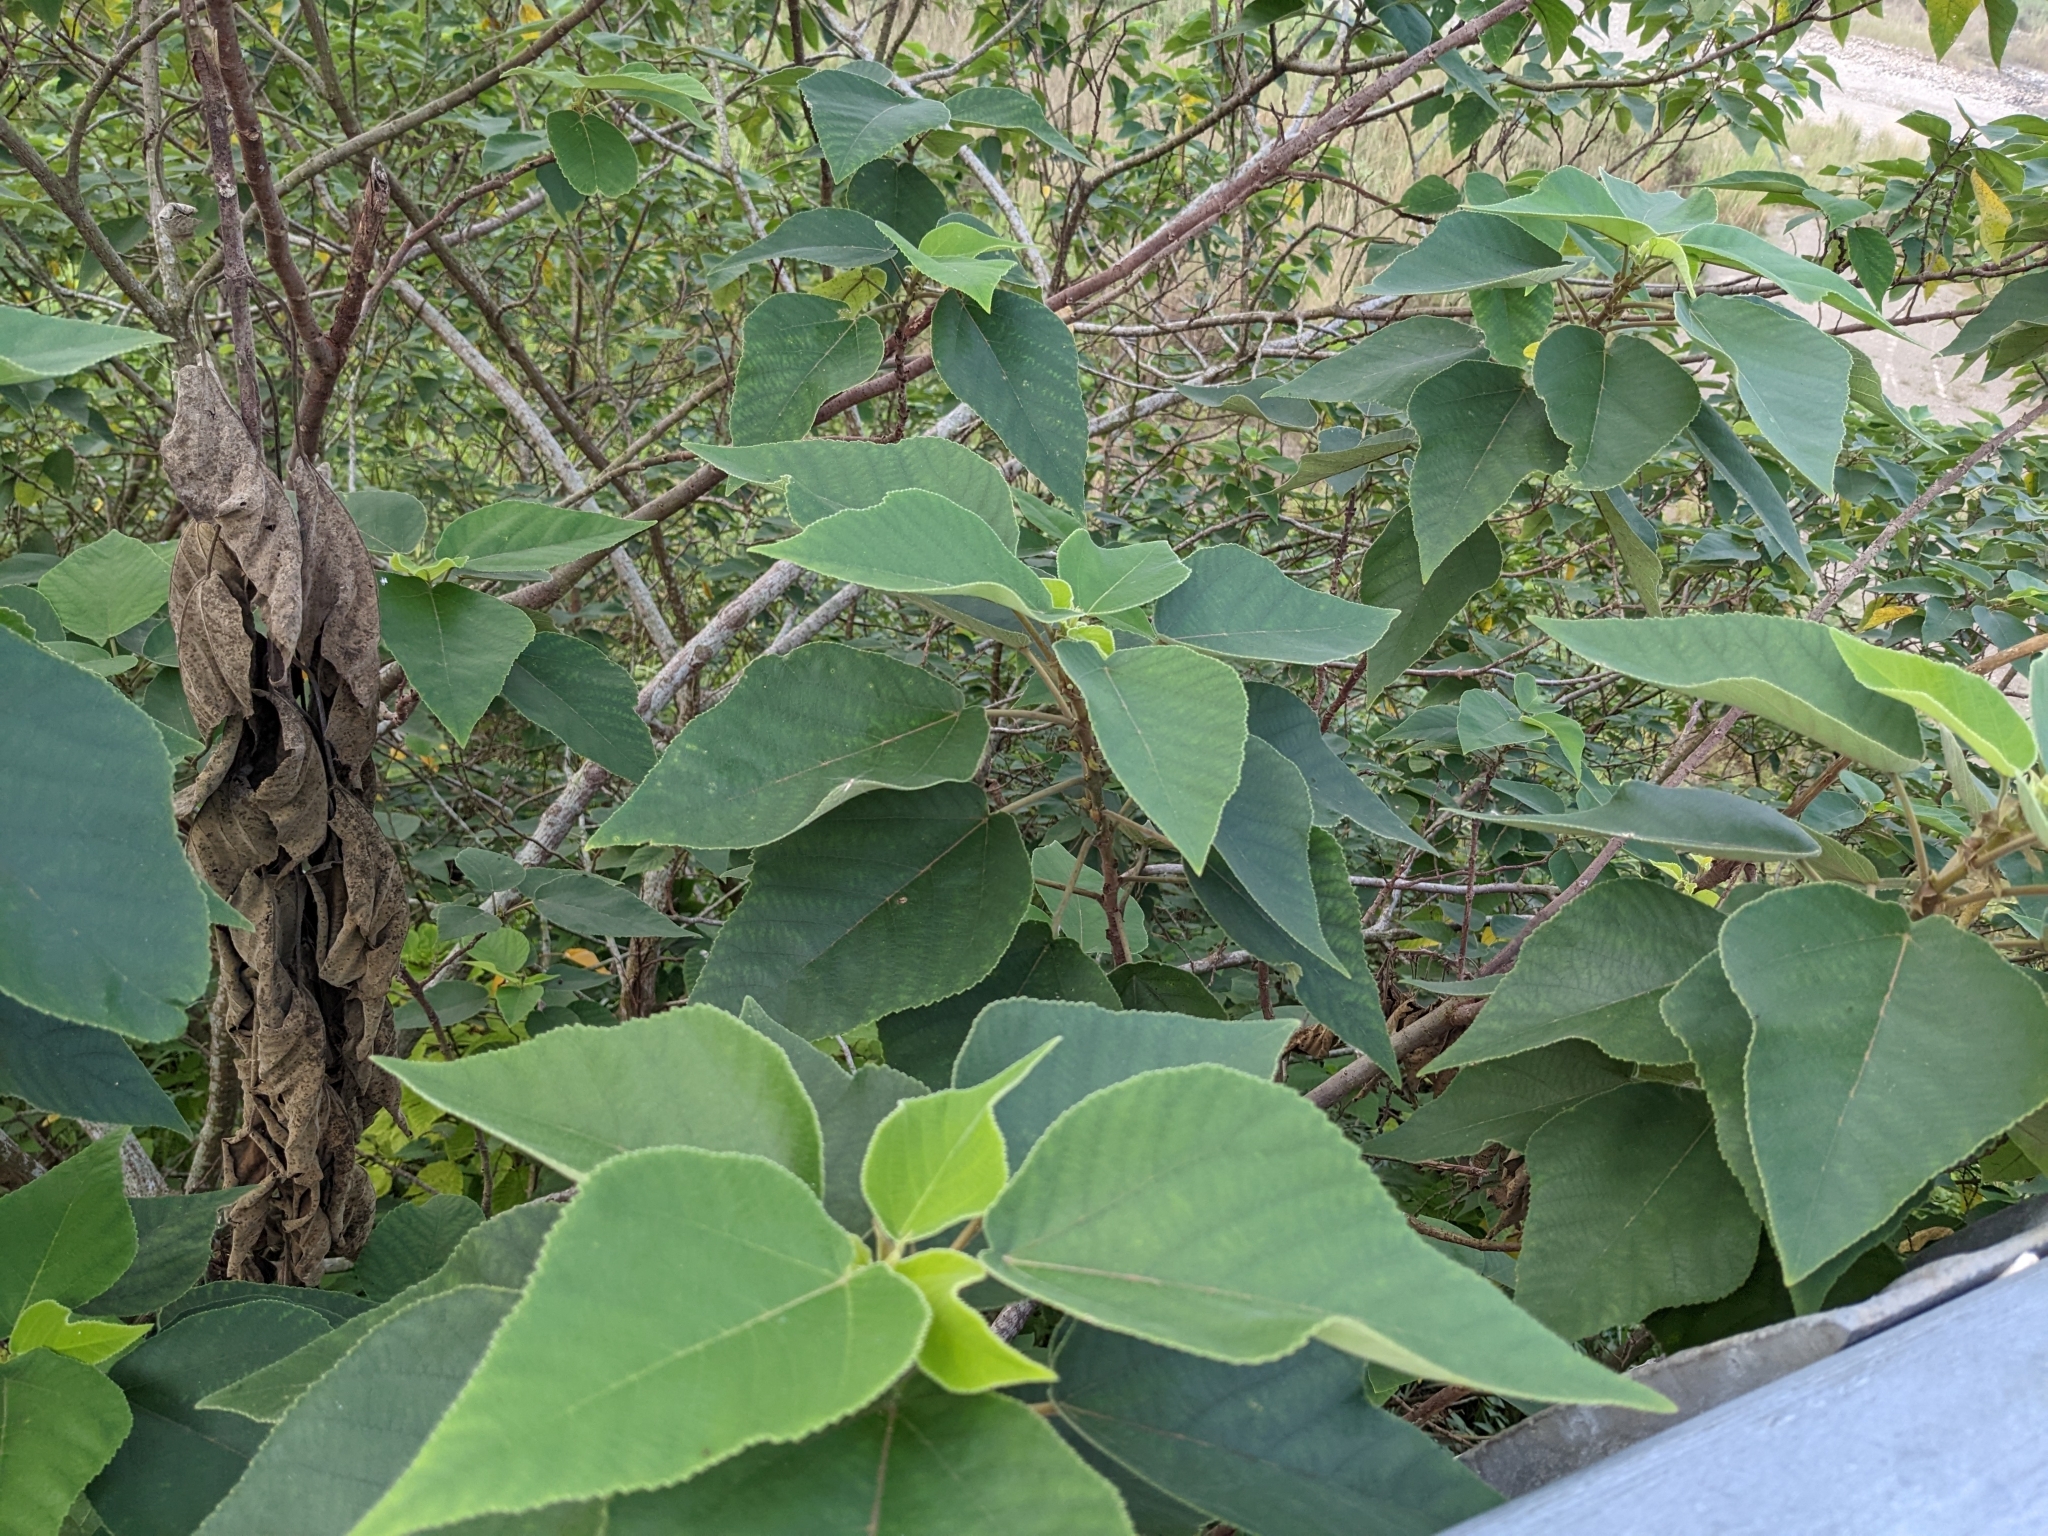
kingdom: Plantae
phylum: Tracheophyta
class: Magnoliopsida
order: Rosales
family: Moraceae
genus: Broussonetia
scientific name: Broussonetia papyrifera
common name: Paper mulberry
